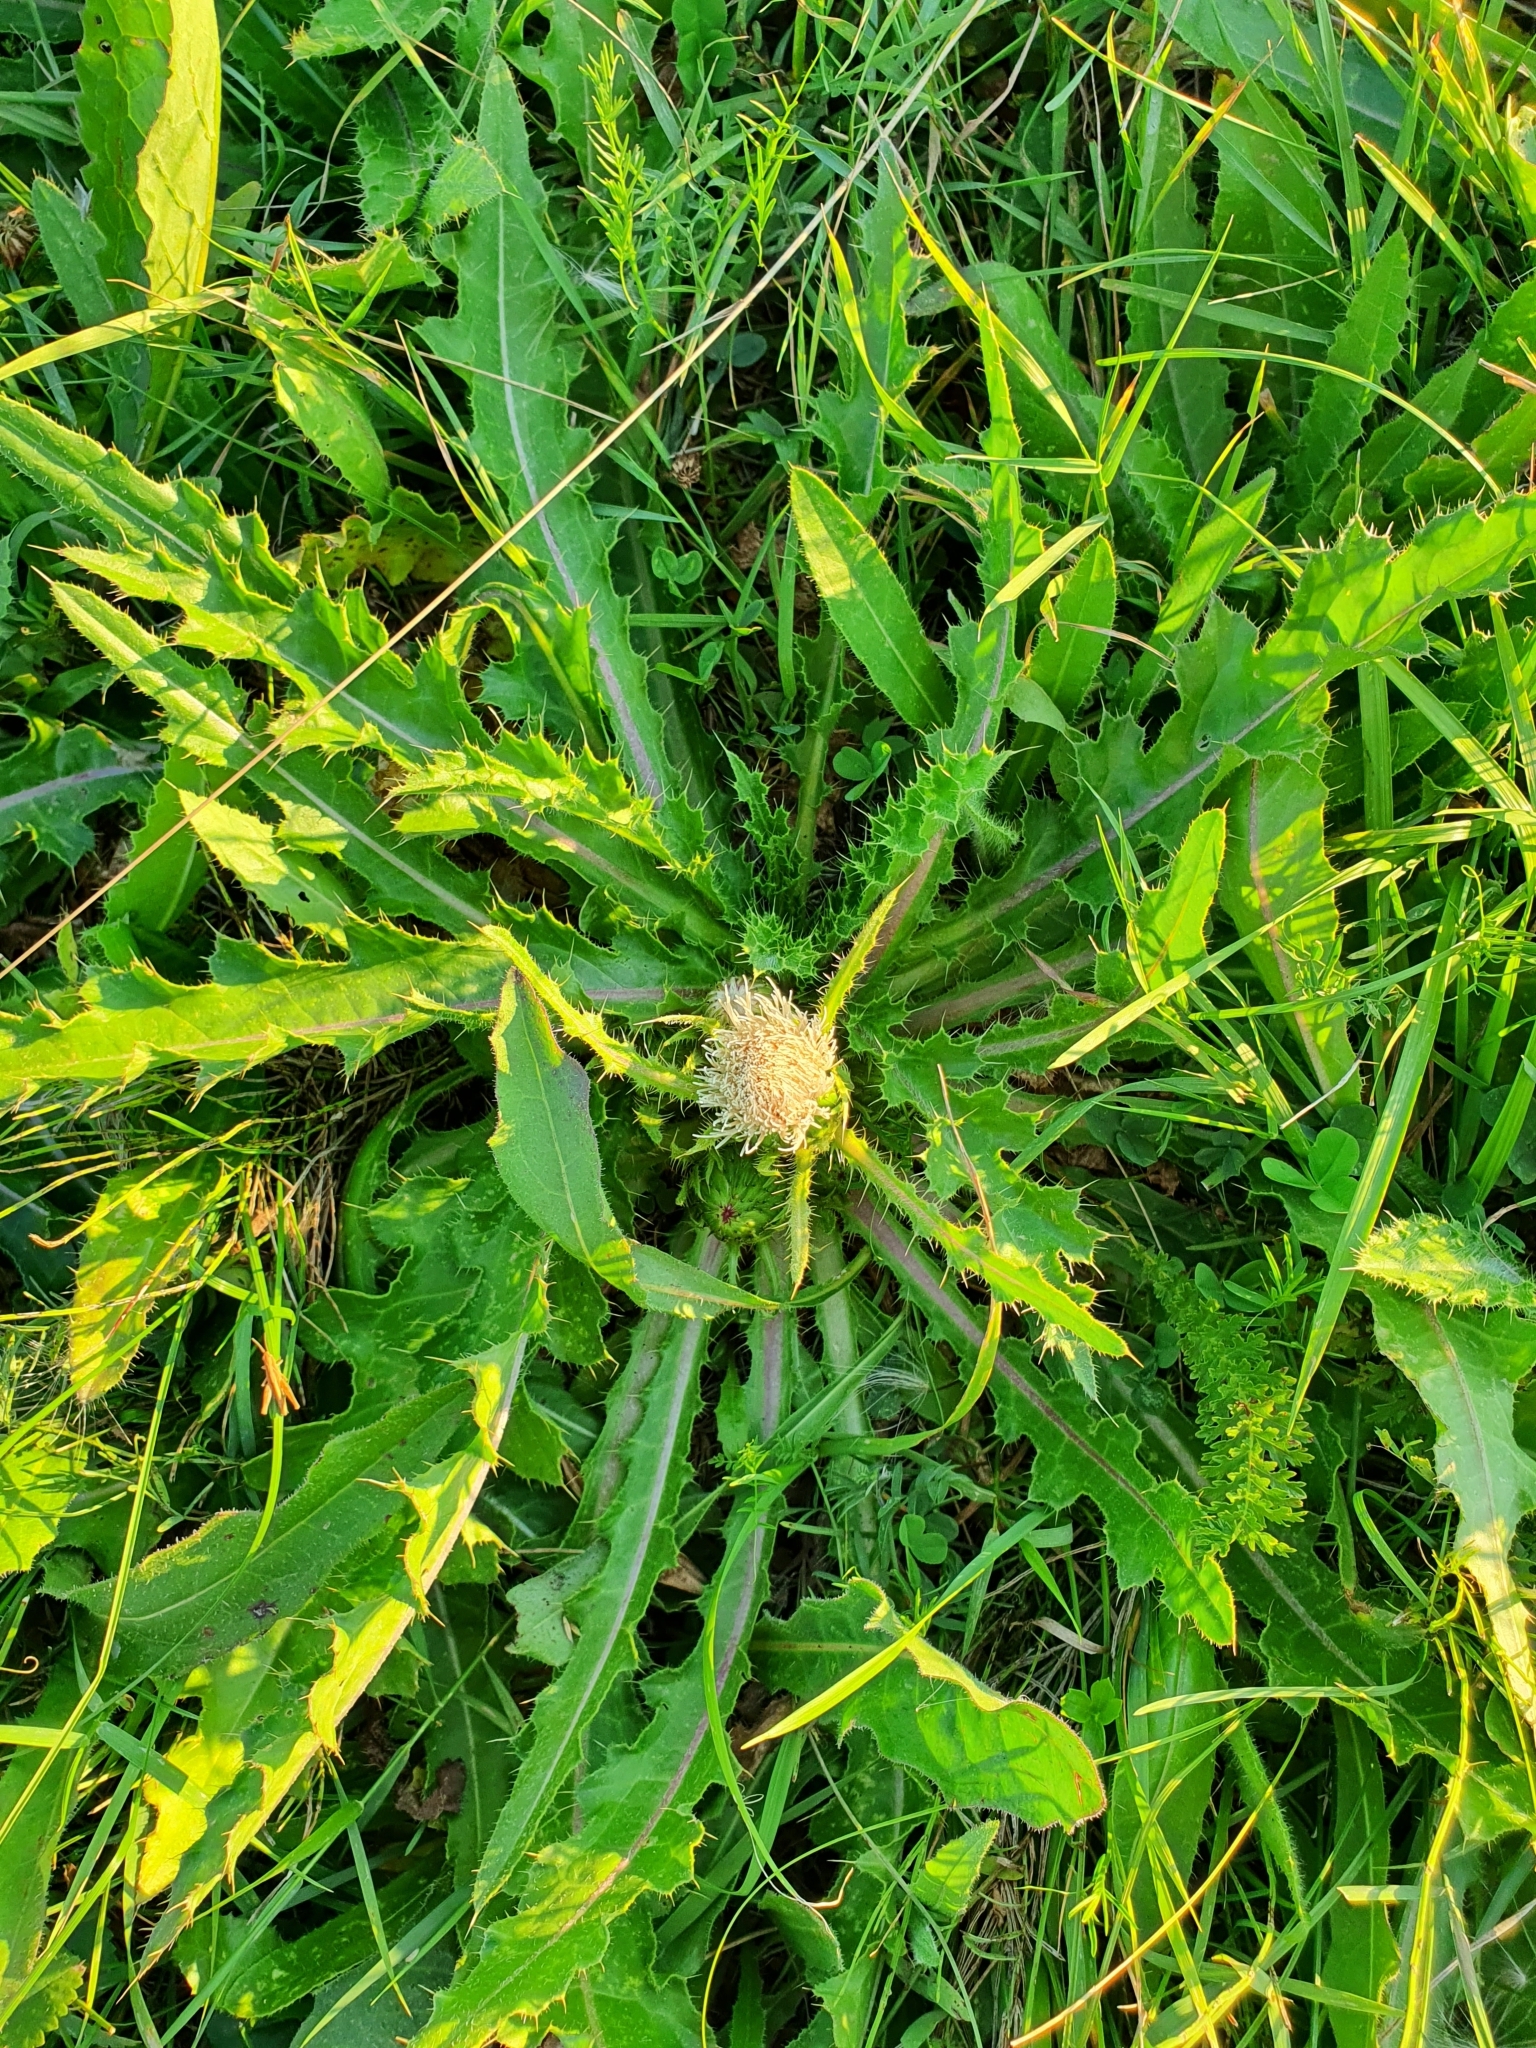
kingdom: Plantae
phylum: Tracheophyta
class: Magnoliopsida
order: Asterales
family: Asteraceae
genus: Cirsium
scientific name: Cirsium esculentum
